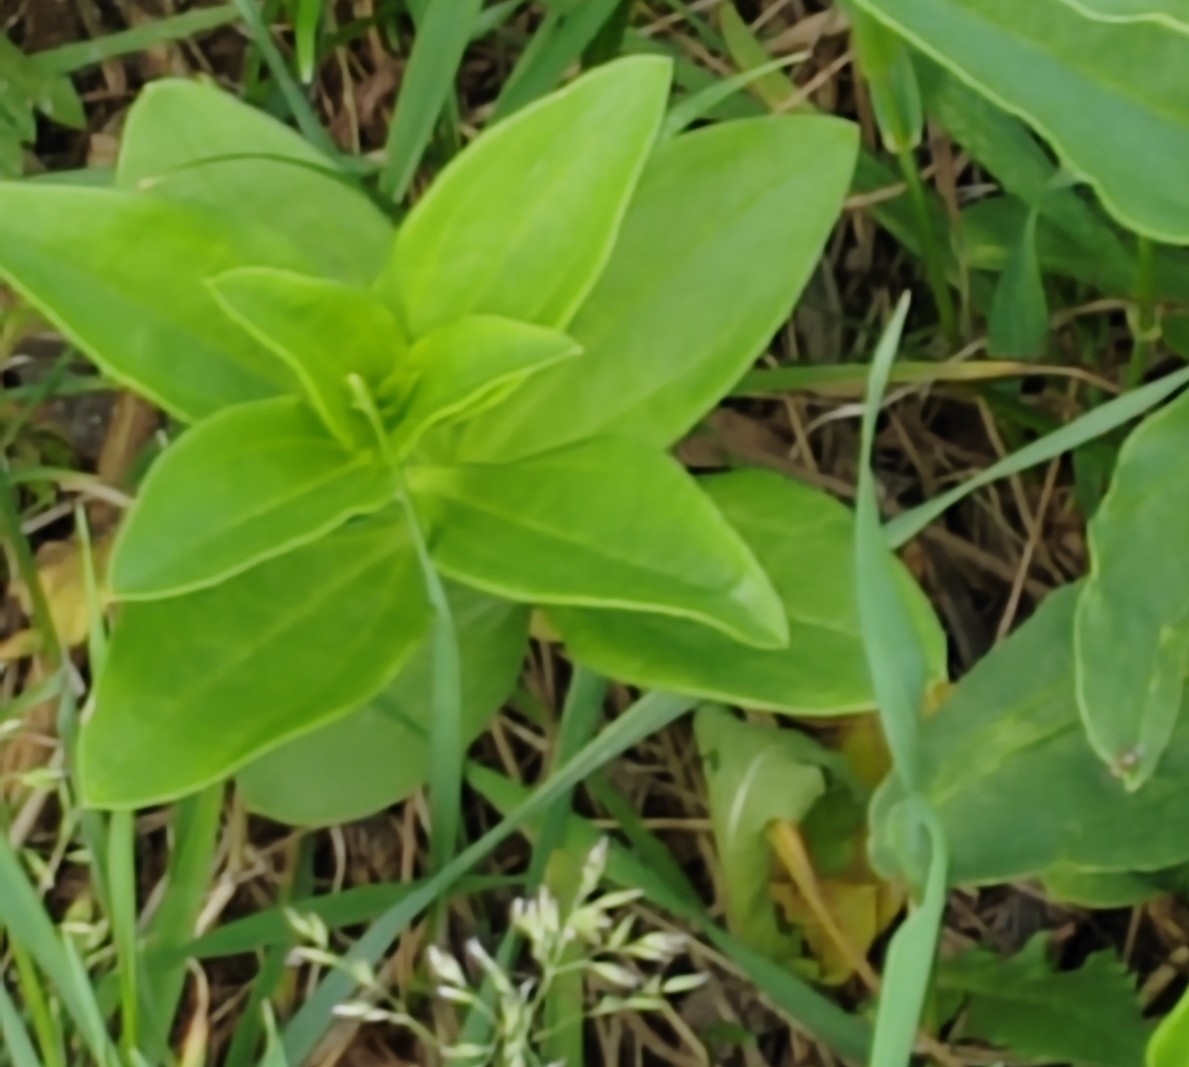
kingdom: Plantae
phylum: Tracheophyta
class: Magnoliopsida
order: Caryophyllales
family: Caryophyllaceae
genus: Saponaria
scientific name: Saponaria officinalis
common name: Soapwort
